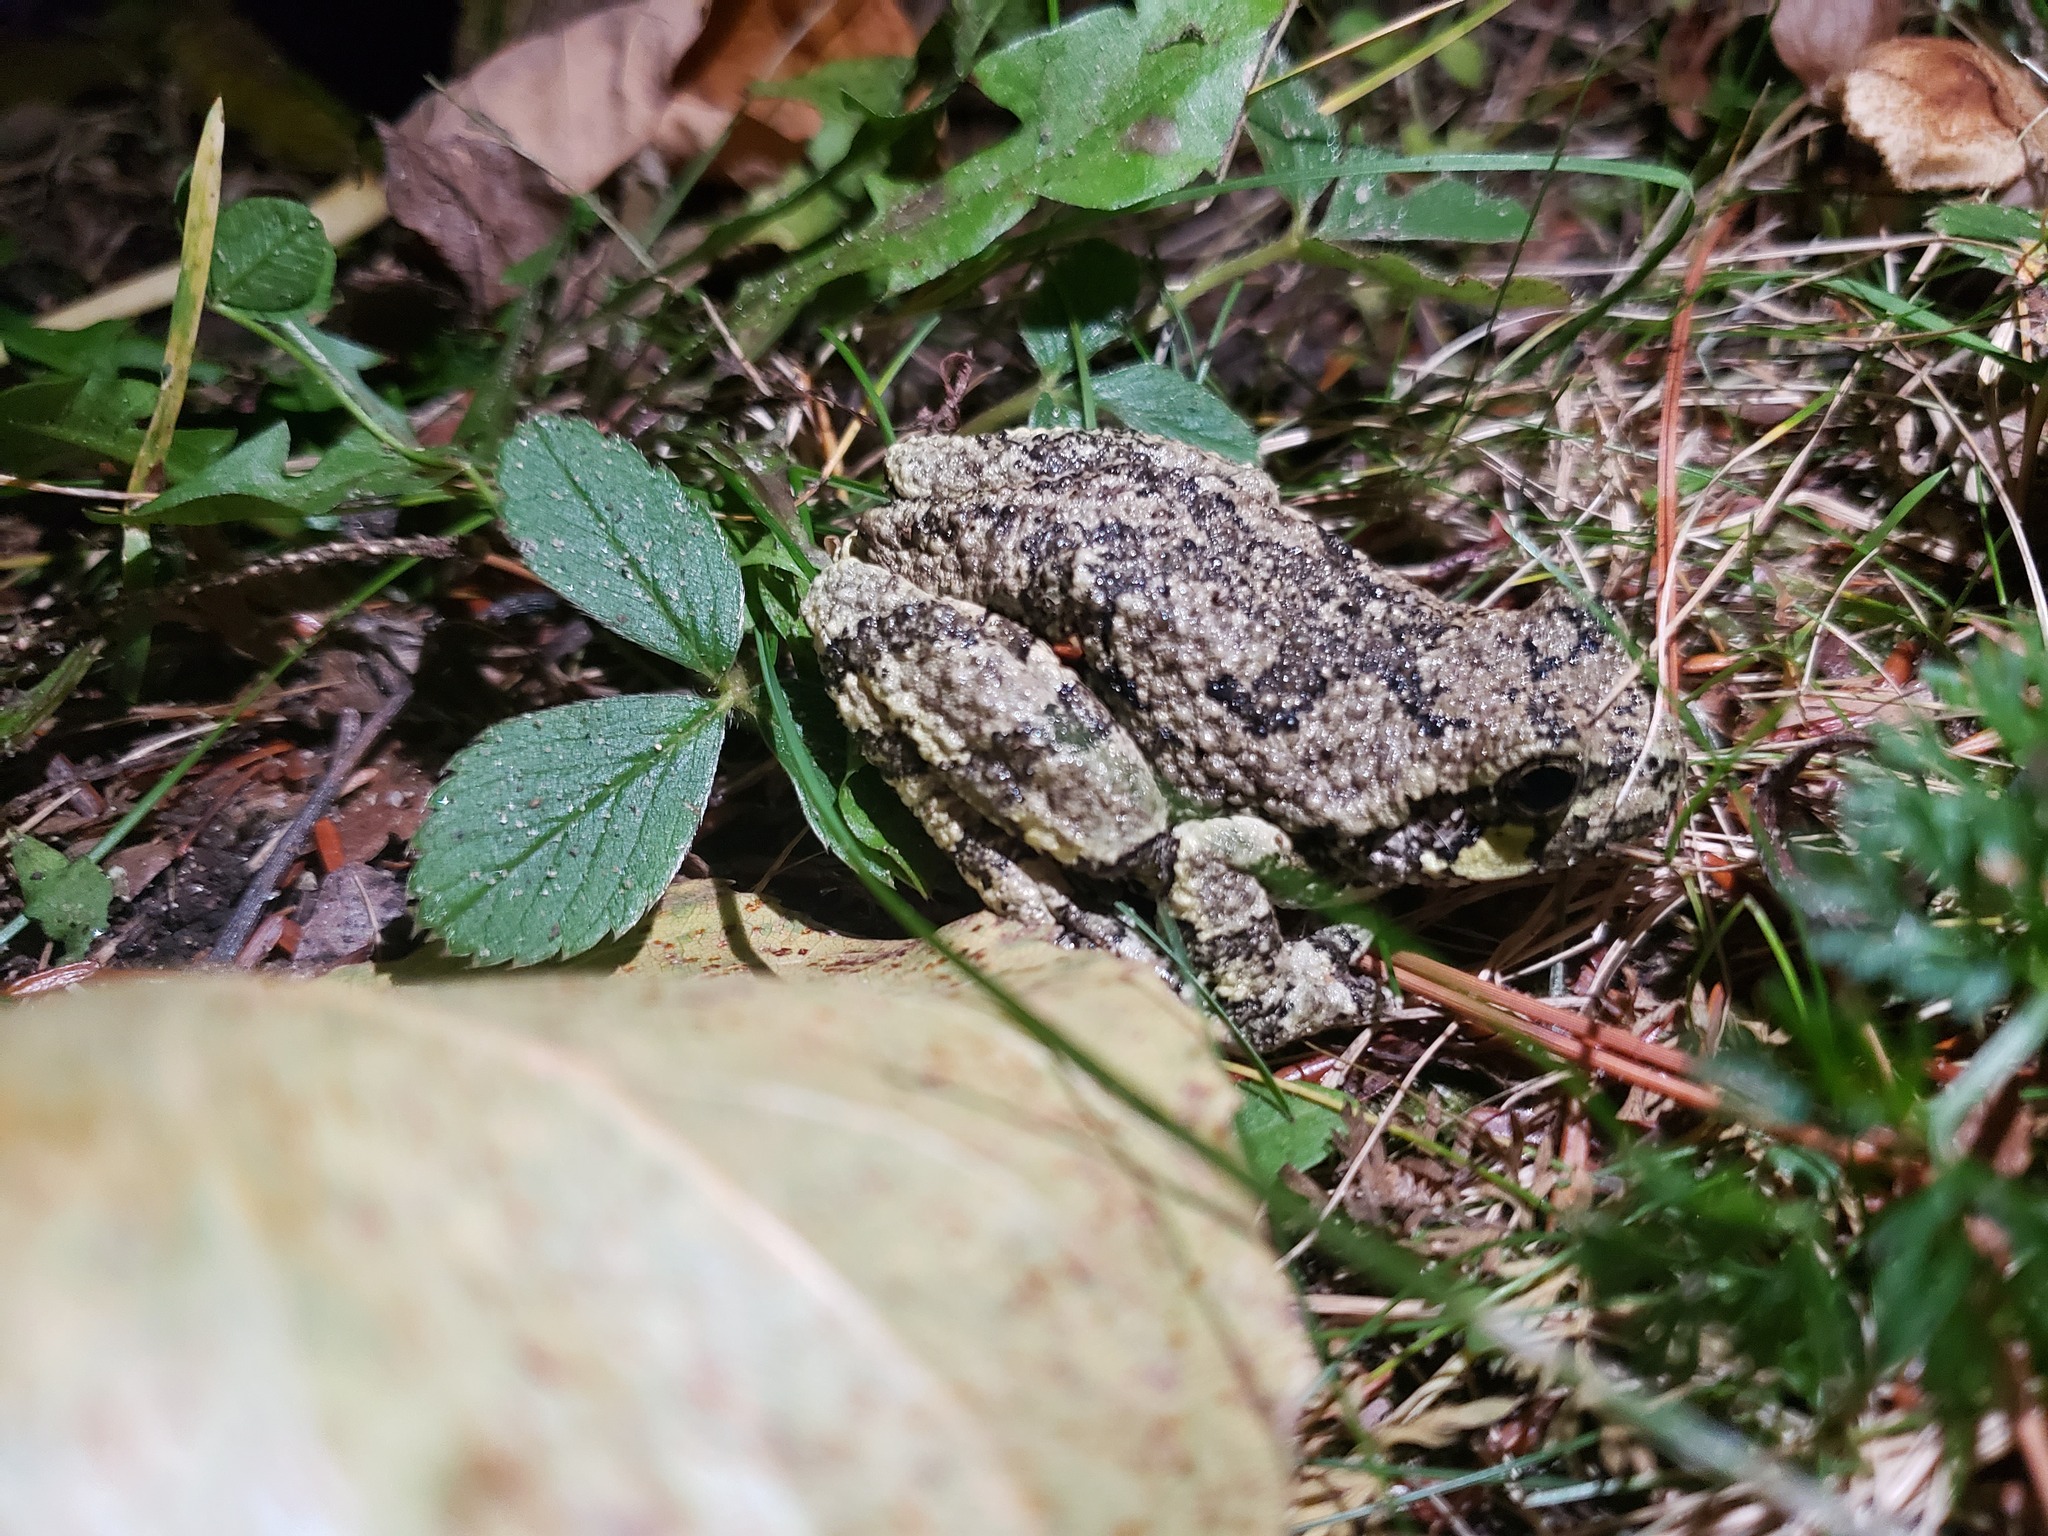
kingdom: Animalia
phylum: Chordata
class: Amphibia
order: Anura
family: Hylidae
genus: Dryophytes
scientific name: Dryophytes versicolor
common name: Gray treefrog
